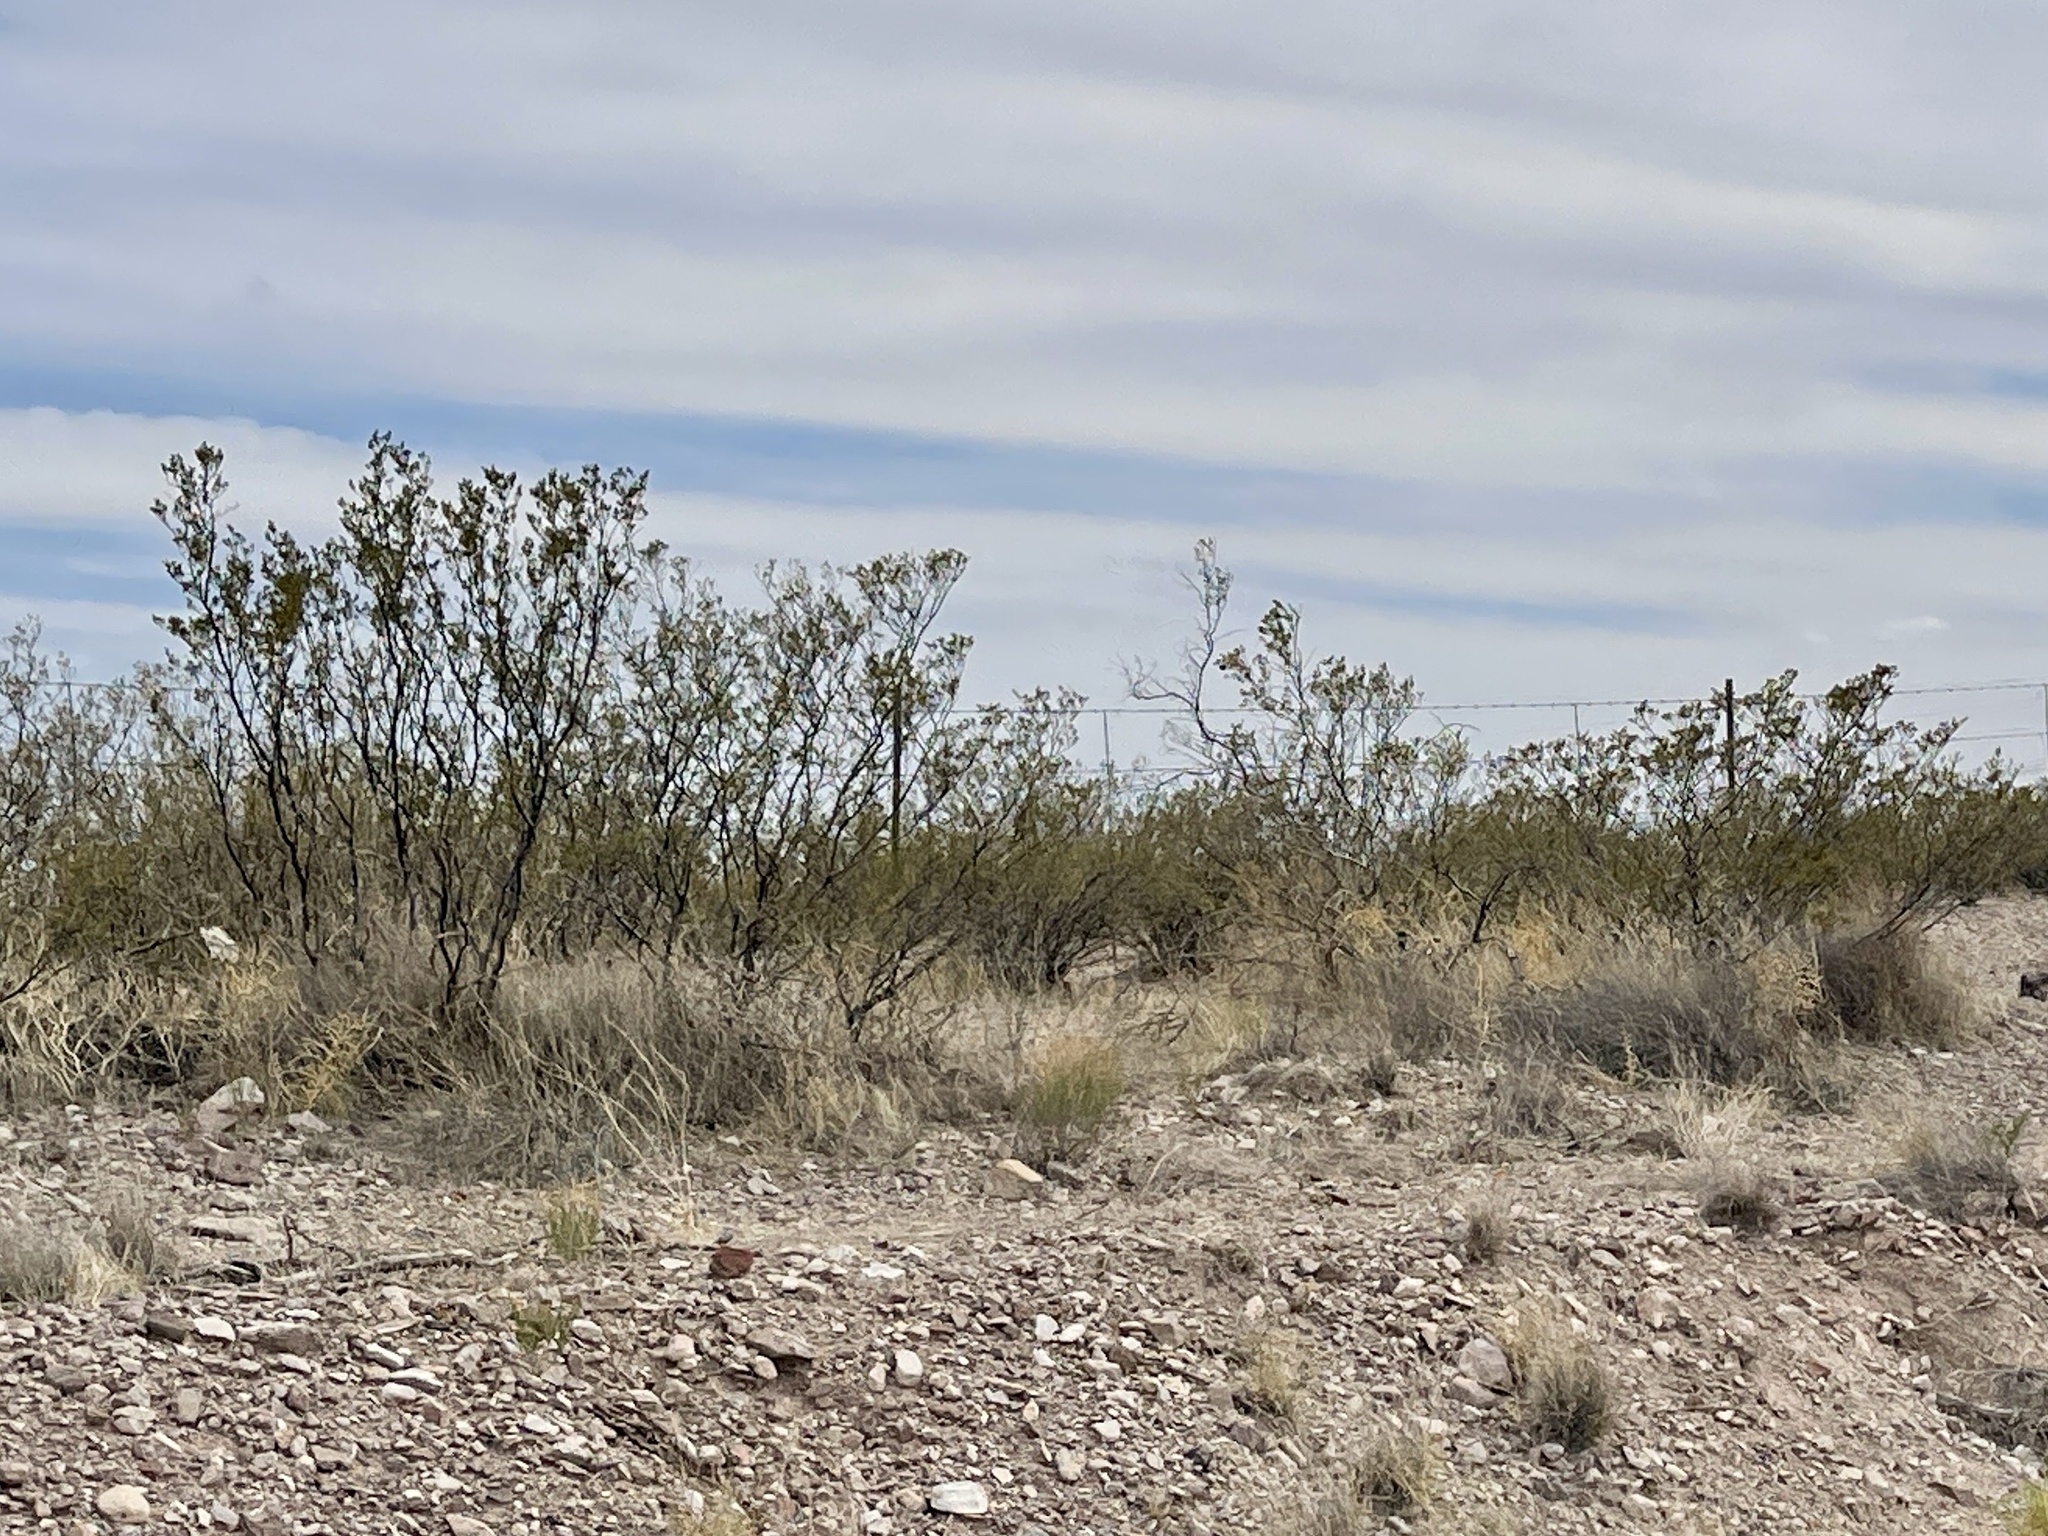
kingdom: Plantae
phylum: Tracheophyta
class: Magnoliopsida
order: Zygophyllales
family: Zygophyllaceae
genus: Larrea
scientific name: Larrea tridentata
